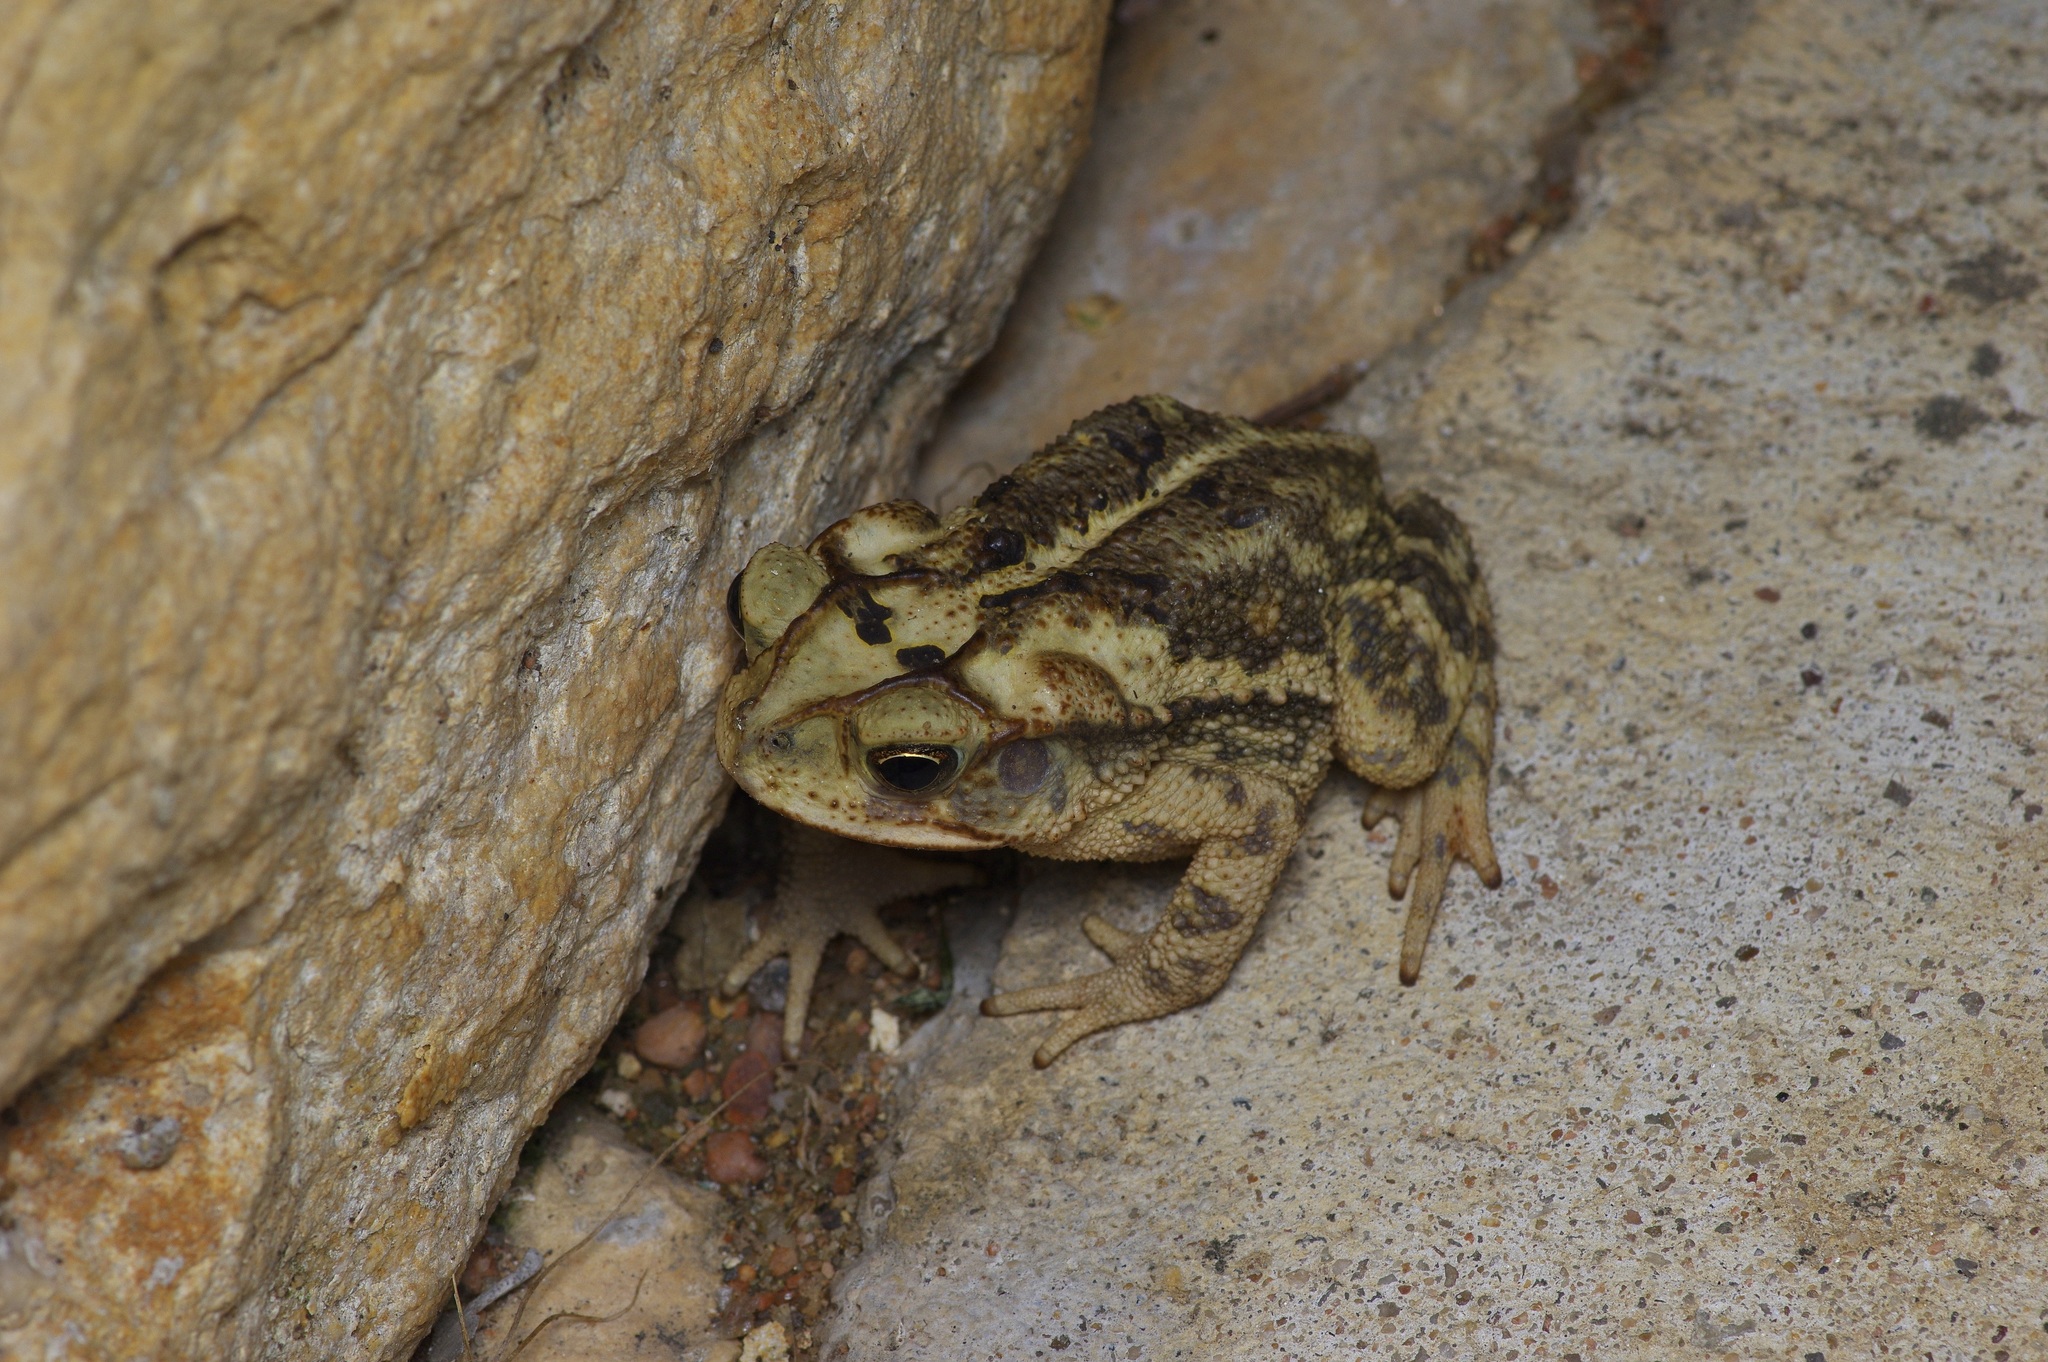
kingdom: Animalia
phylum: Chordata
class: Amphibia
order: Anura
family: Bufonidae
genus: Incilius
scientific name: Incilius nebulifer
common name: Gulf coast toad
